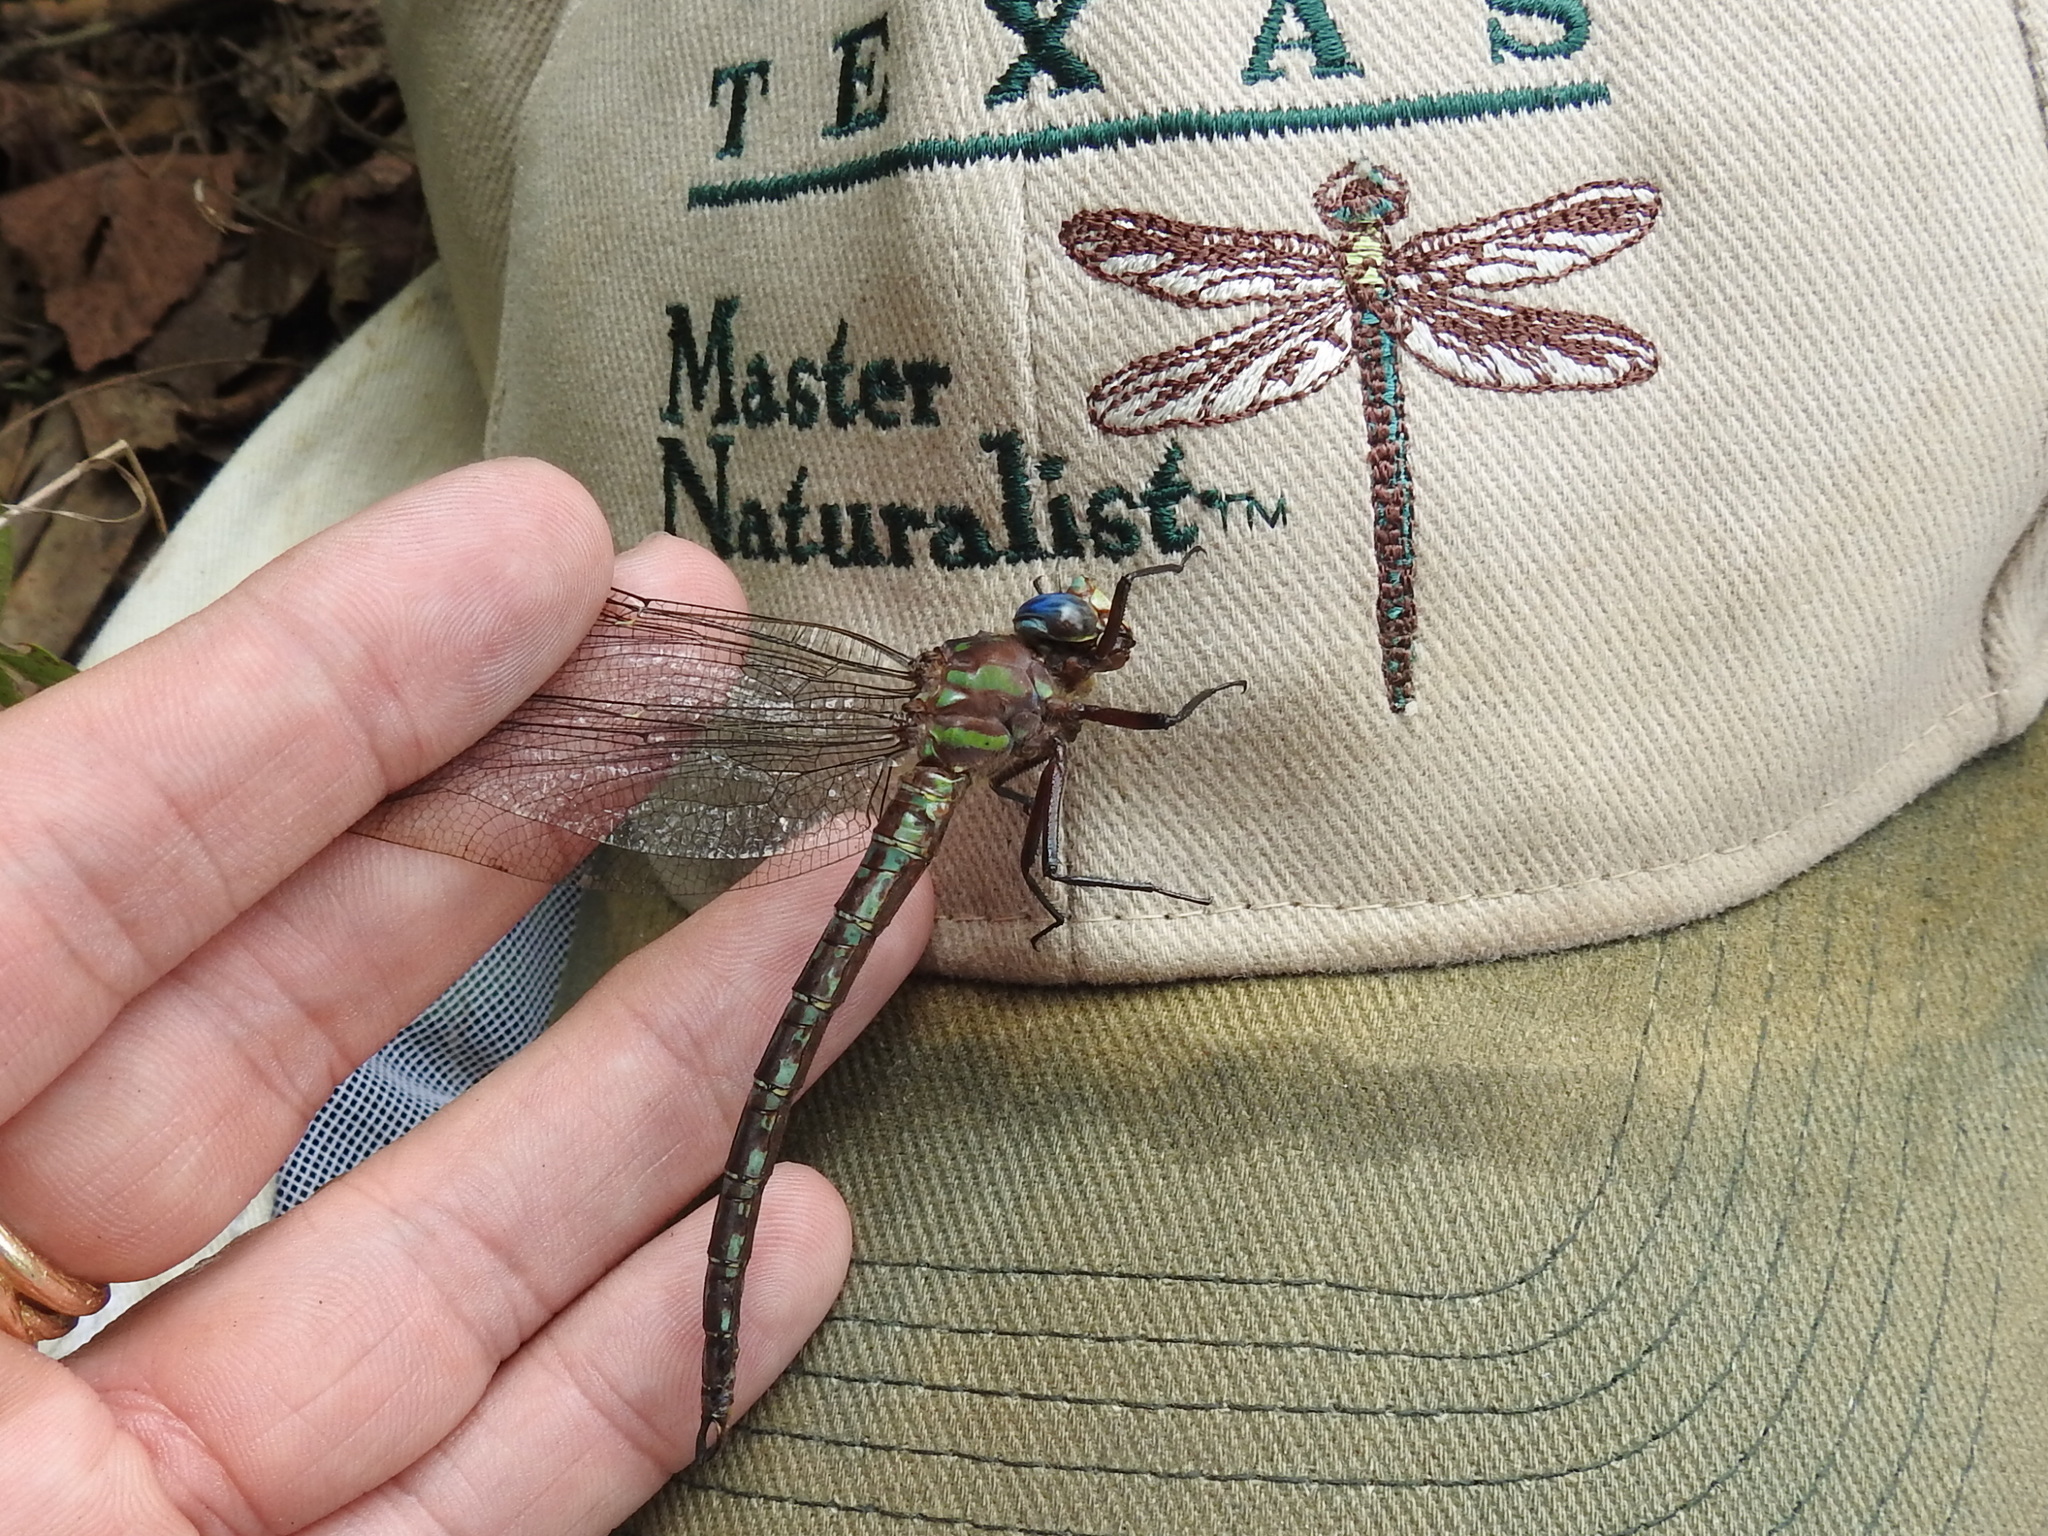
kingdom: Animalia
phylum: Arthropoda
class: Insecta
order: Odonata
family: Aeshnidae
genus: Nasiaeschna
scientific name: Nasiaeschna pentacantha
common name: Cyrano darner
